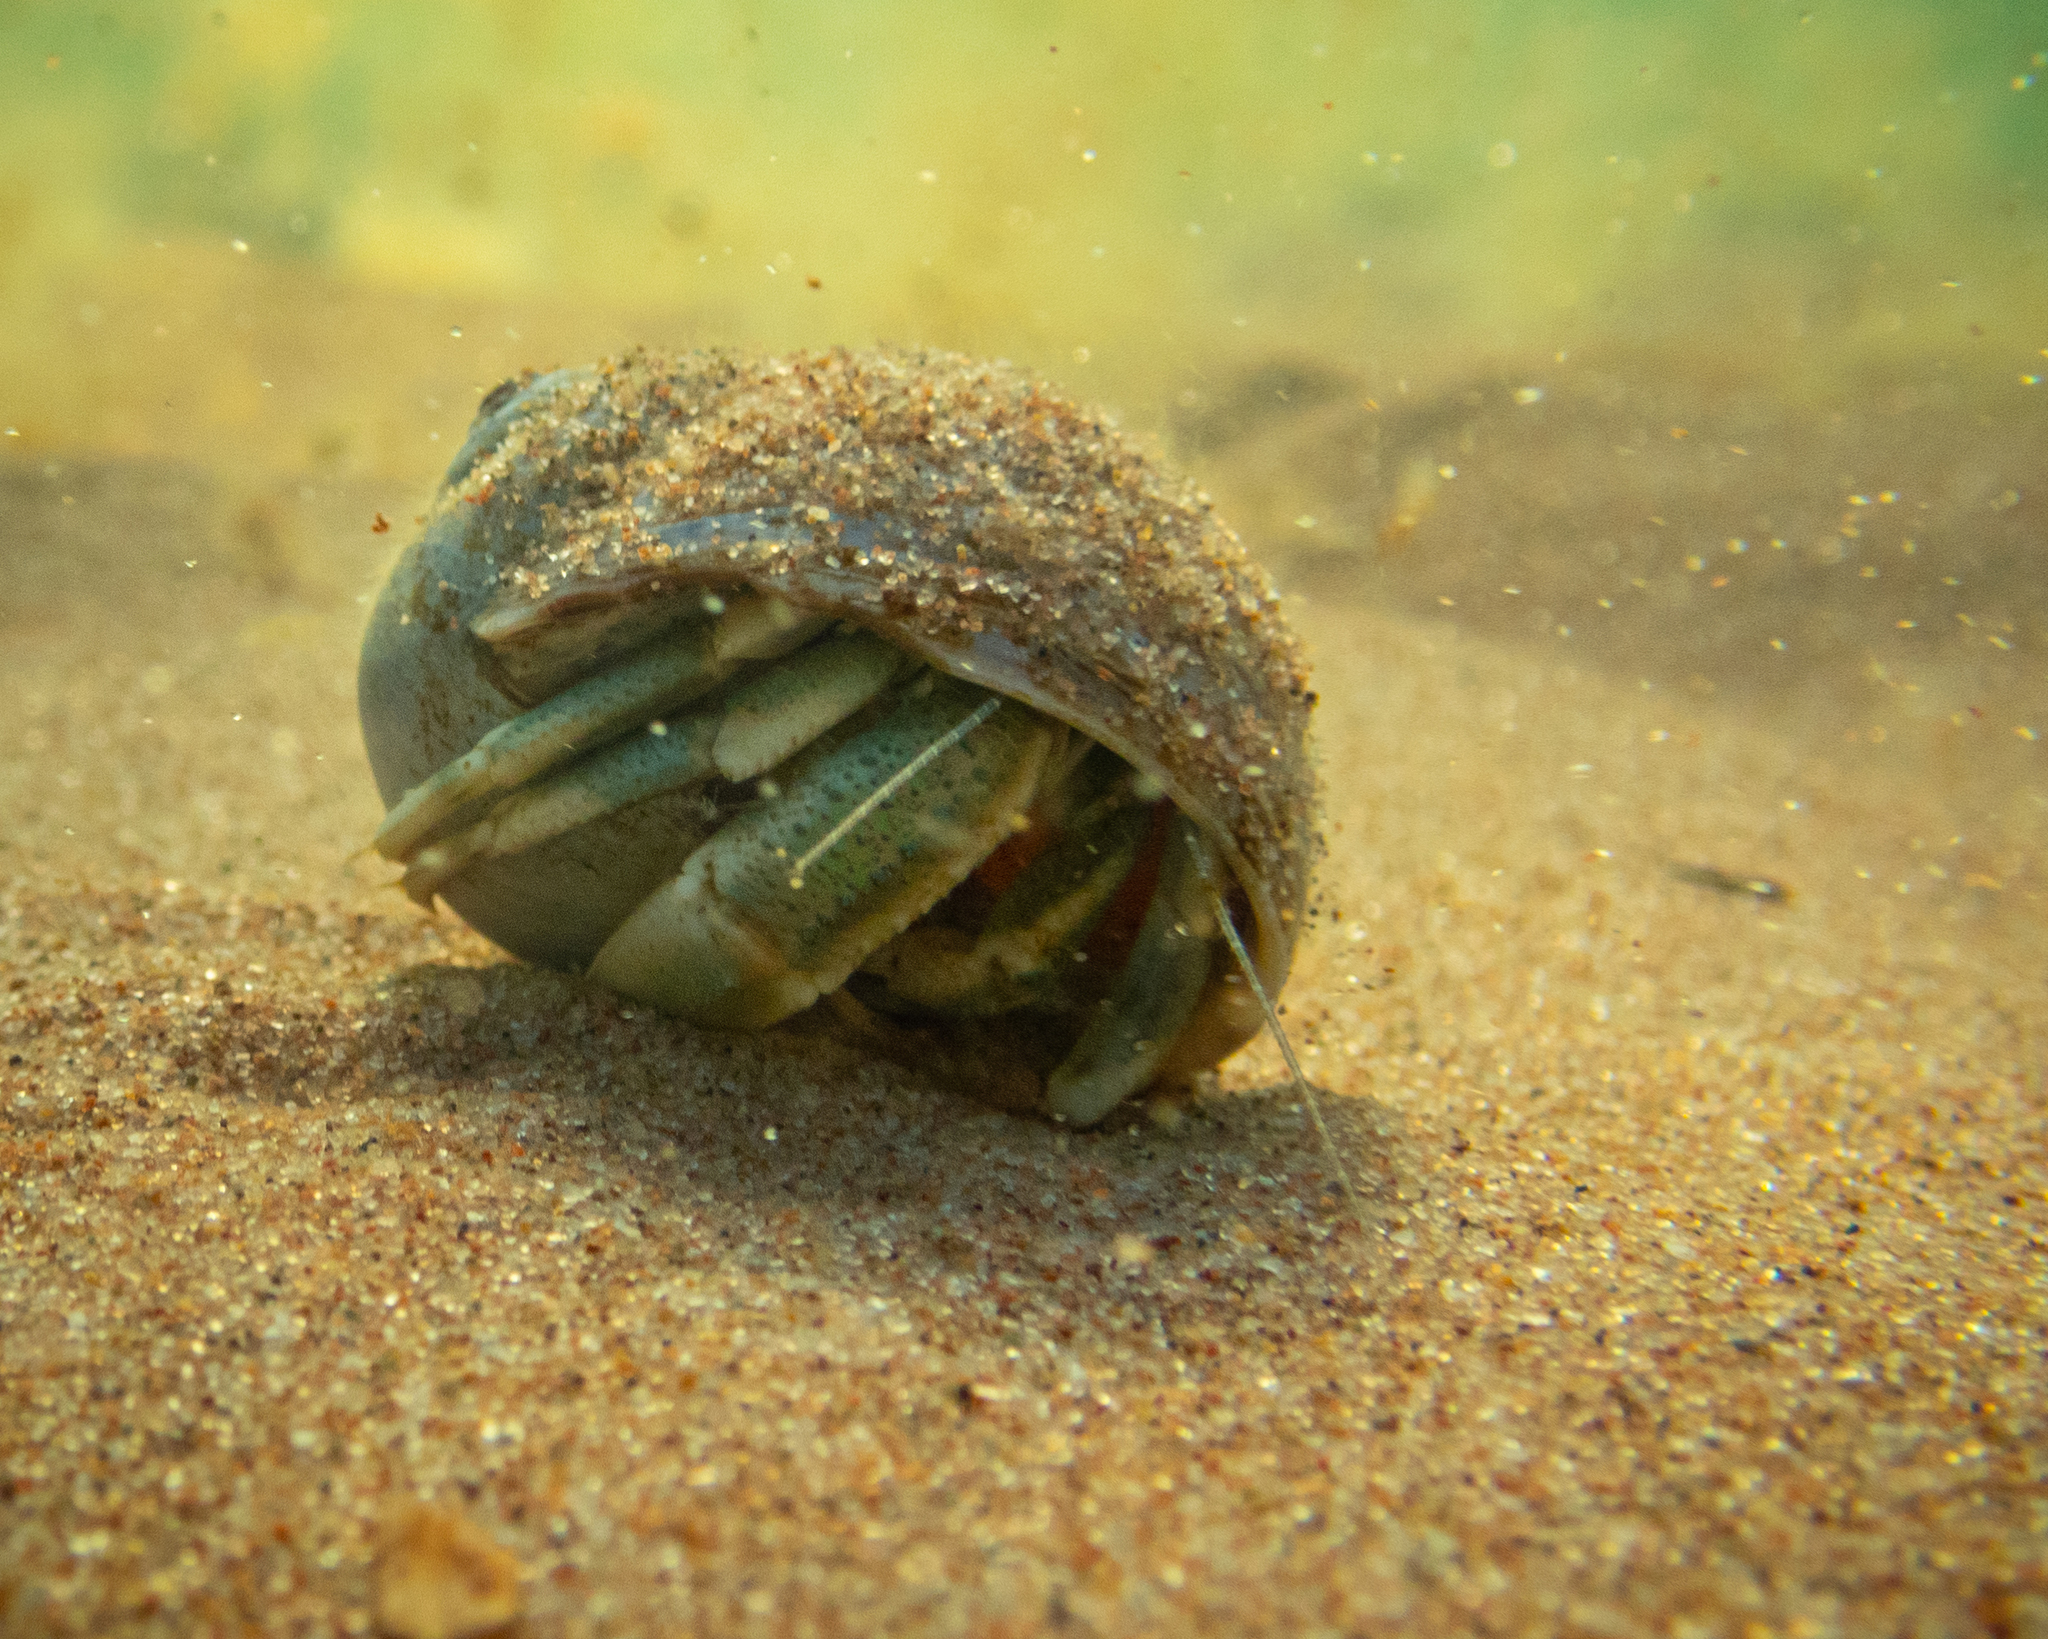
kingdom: Animalia
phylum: Arthropoda
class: Malacostraca
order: Decapoda
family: Paguridae
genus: Pagurus
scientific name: Pagurus longicarpus
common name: Long-armed hermit crab
